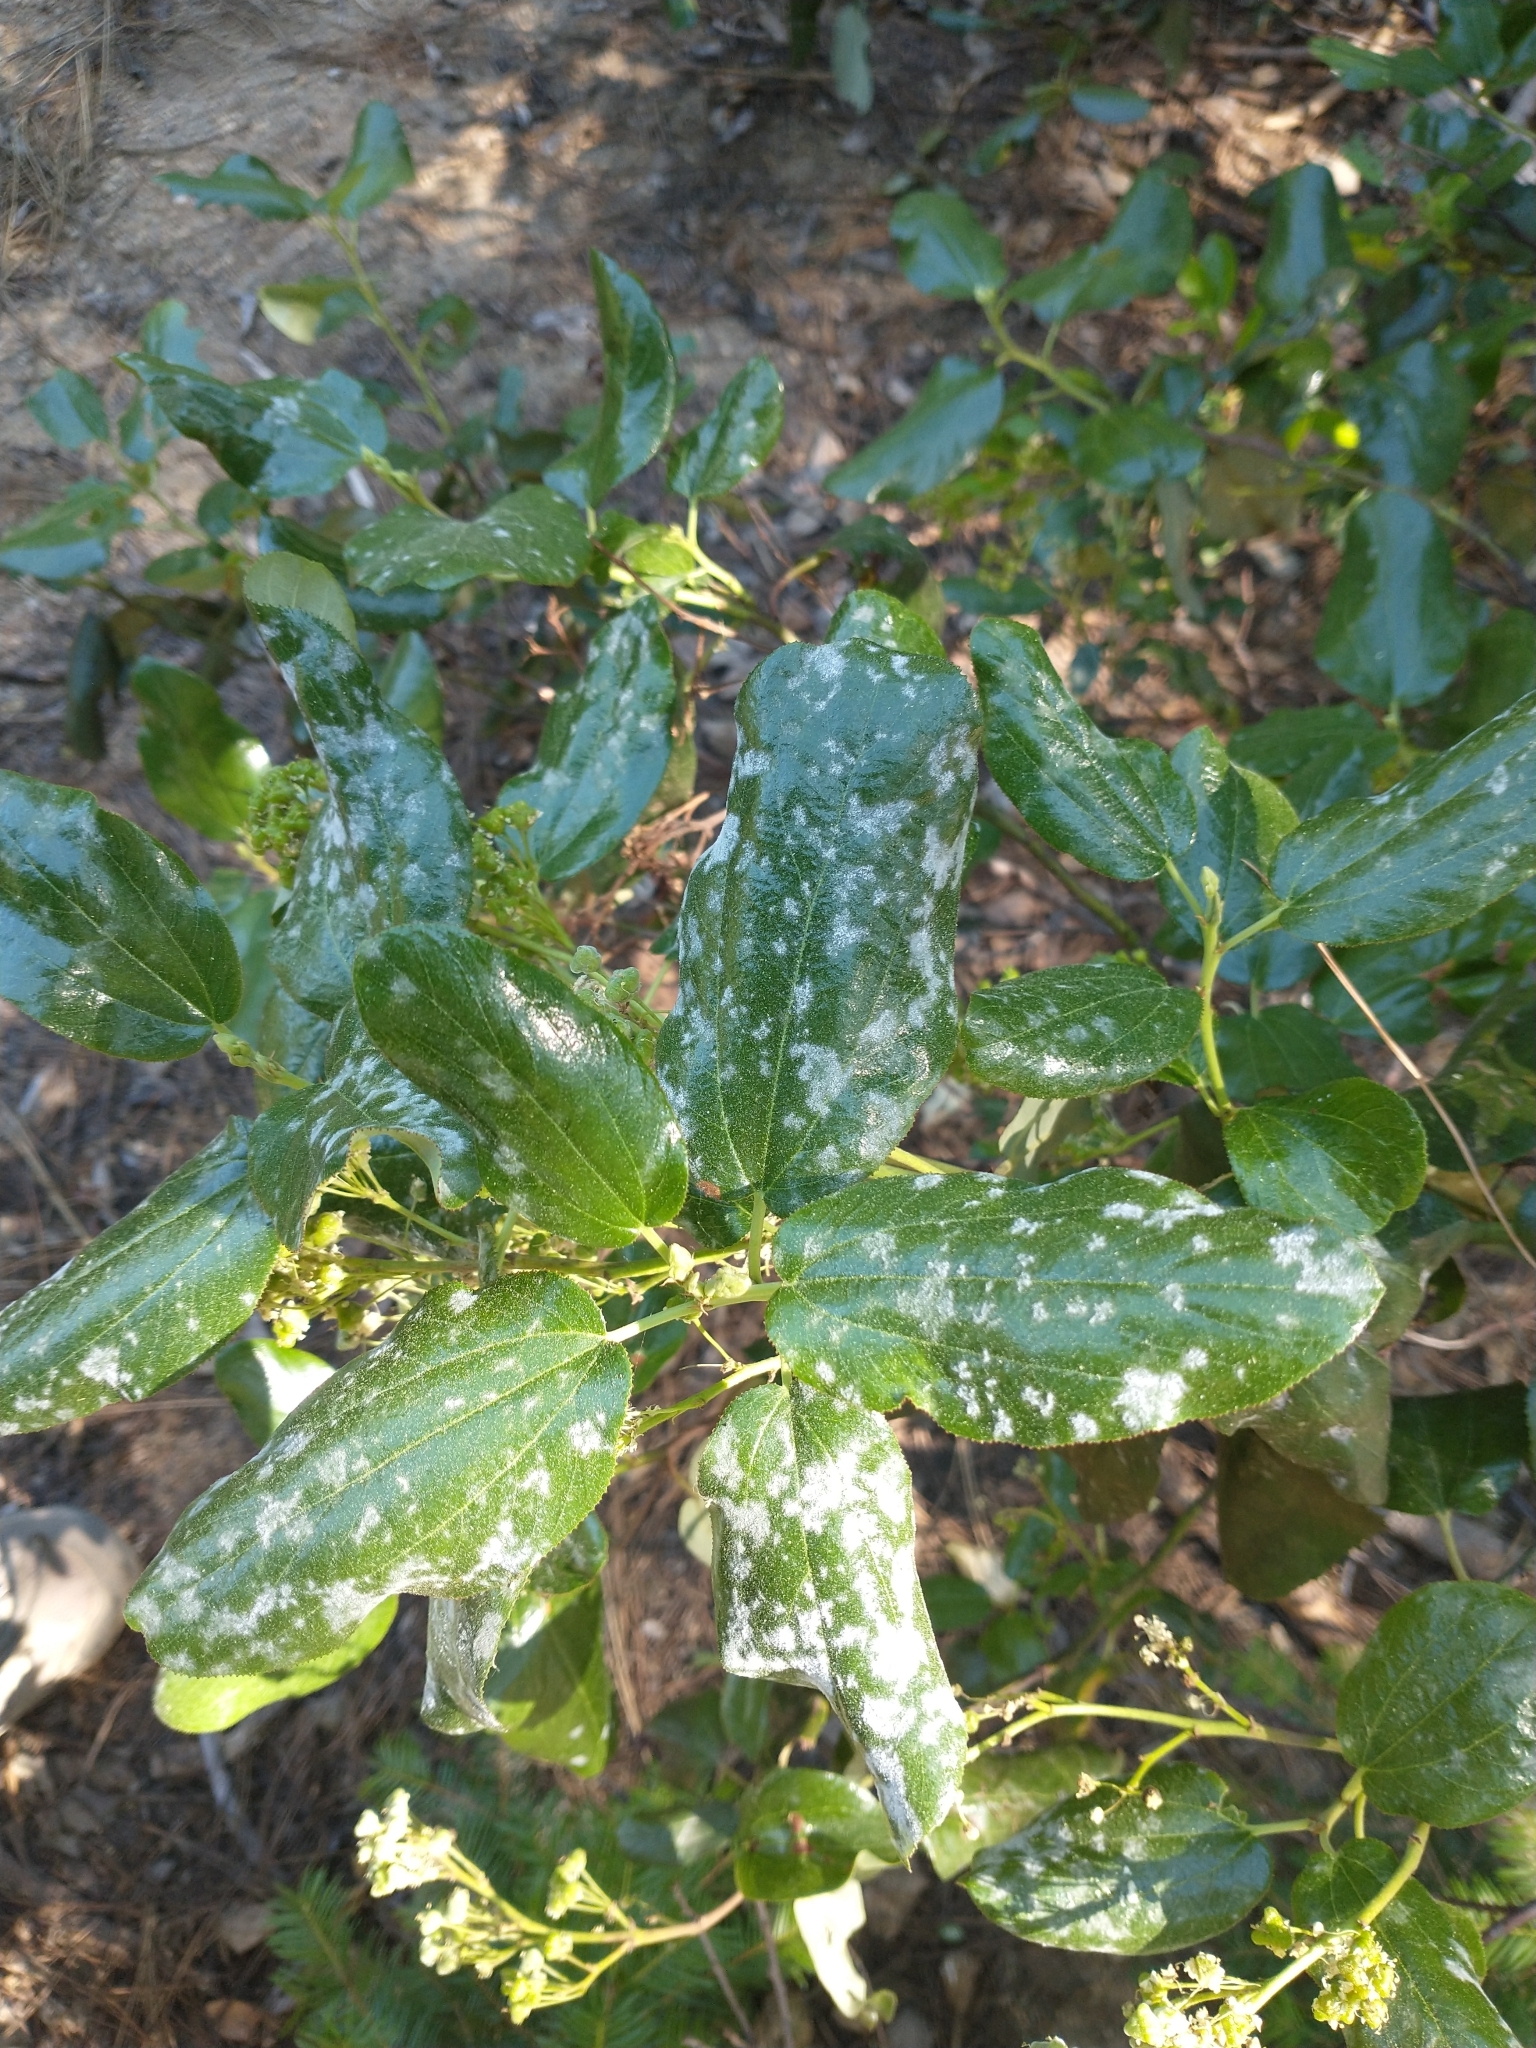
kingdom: Plantae
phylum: Tracheophyta
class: Magnoliopsida
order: Rosales
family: Rhamnaceae
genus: Ceanothus
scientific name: Ceanothus velutinus
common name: Snowbrush
